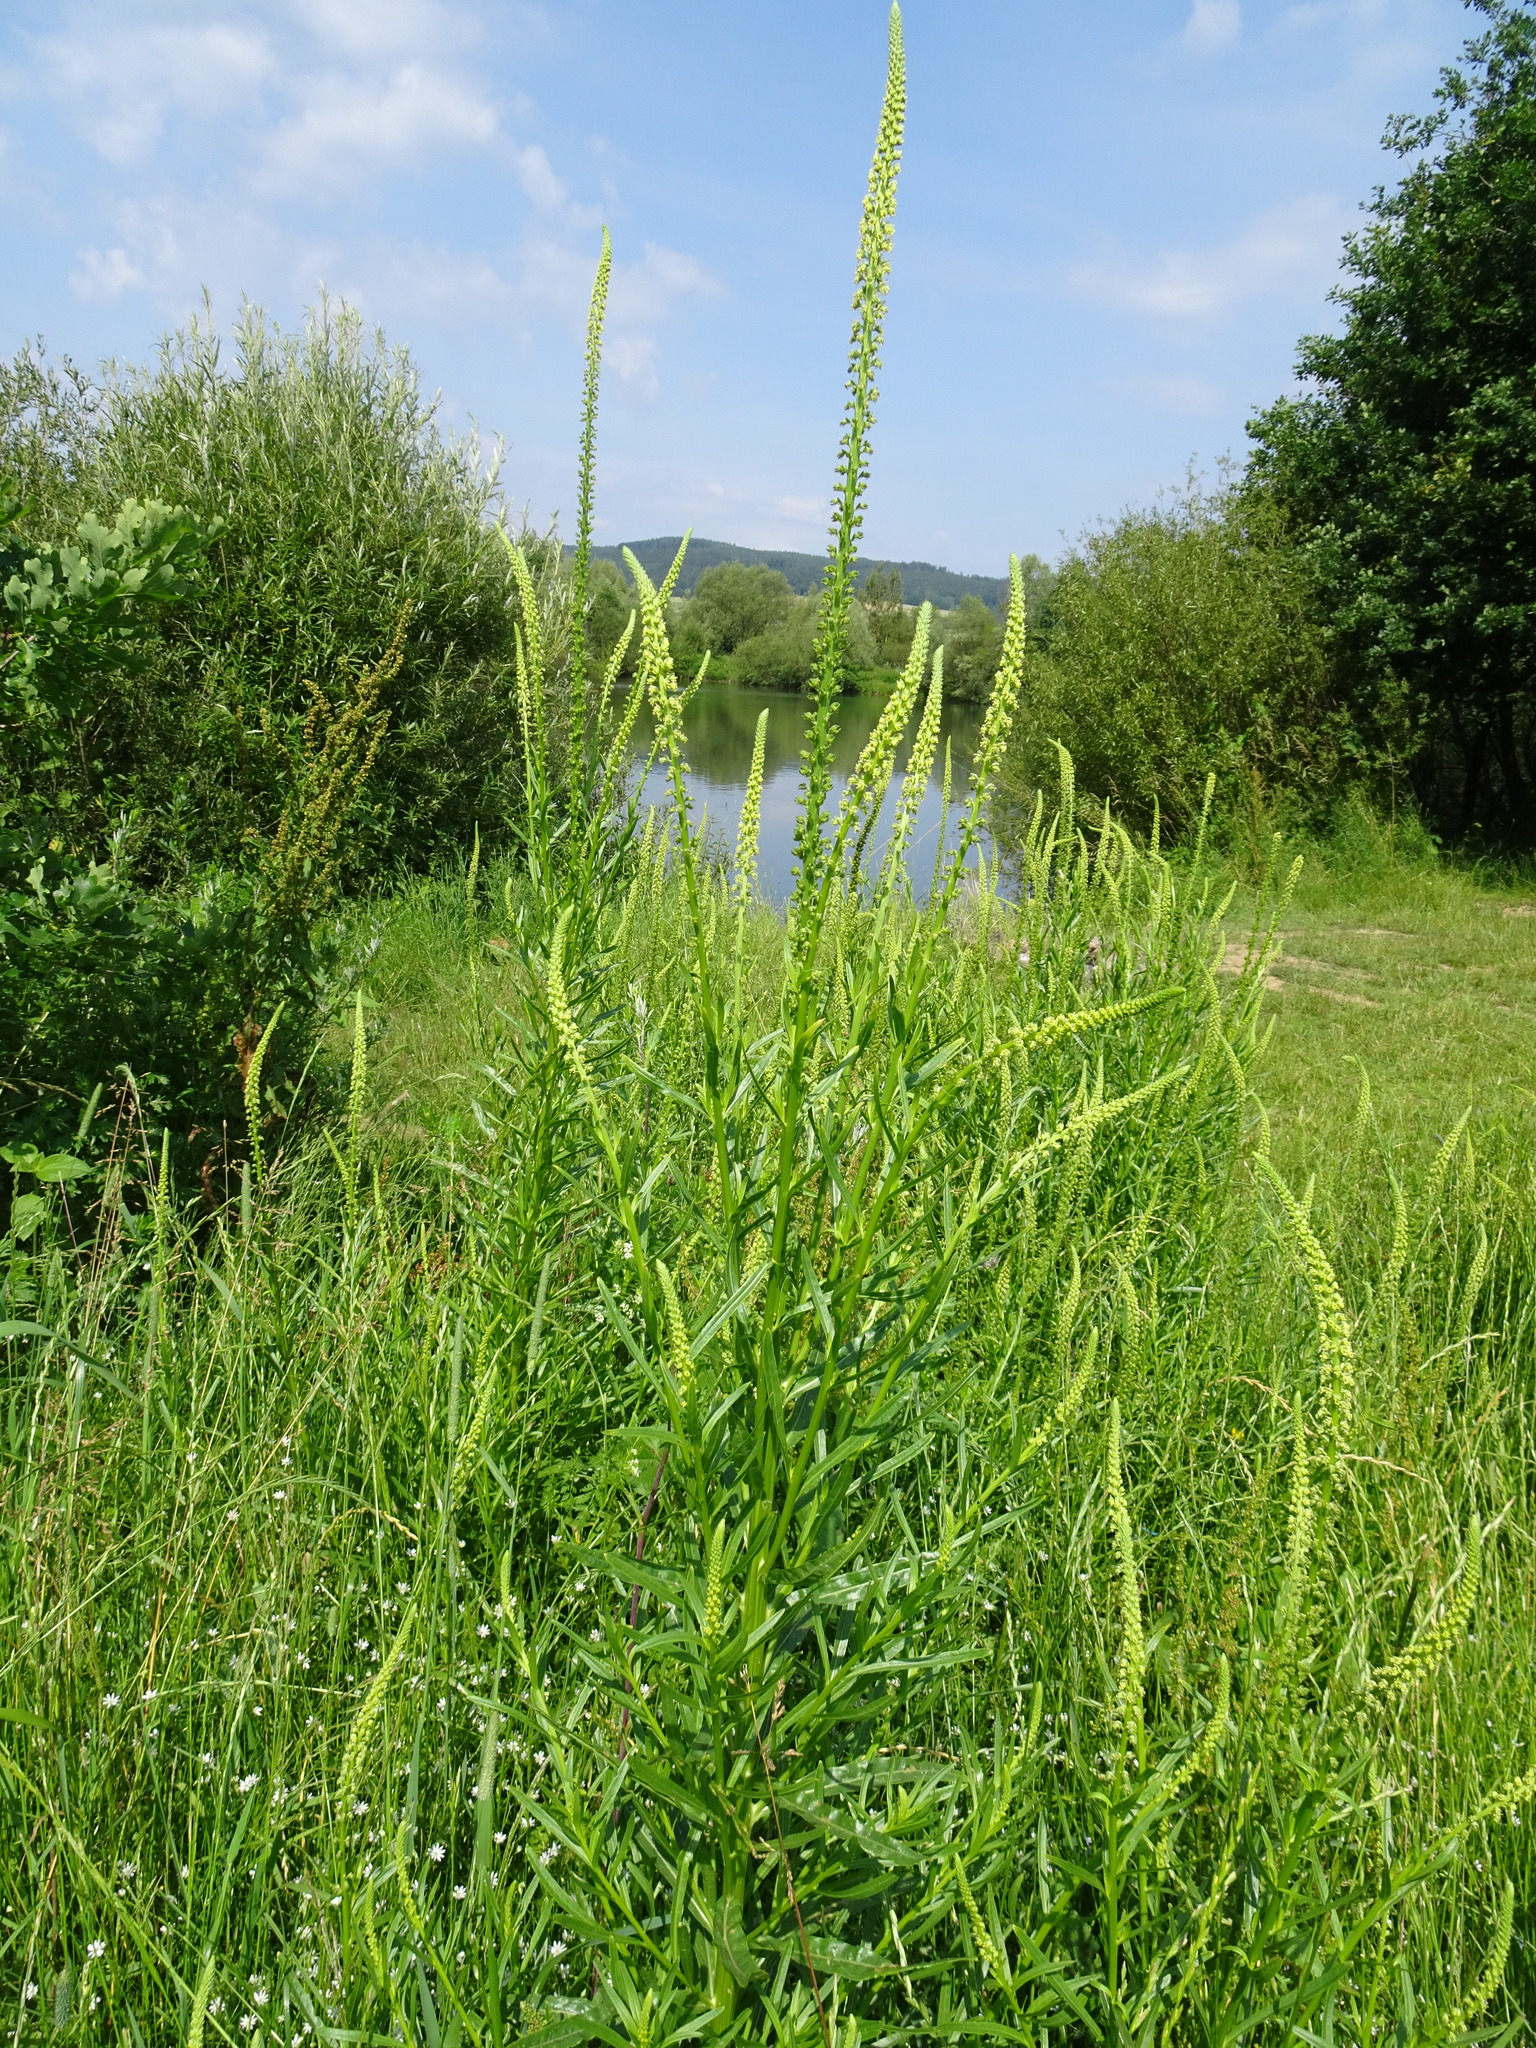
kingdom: Plantae
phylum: Tracheophyta
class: Magnoliopsida
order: Brassicales
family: Resedaceae
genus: Reseda
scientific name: Reseda luteola
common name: Weld
